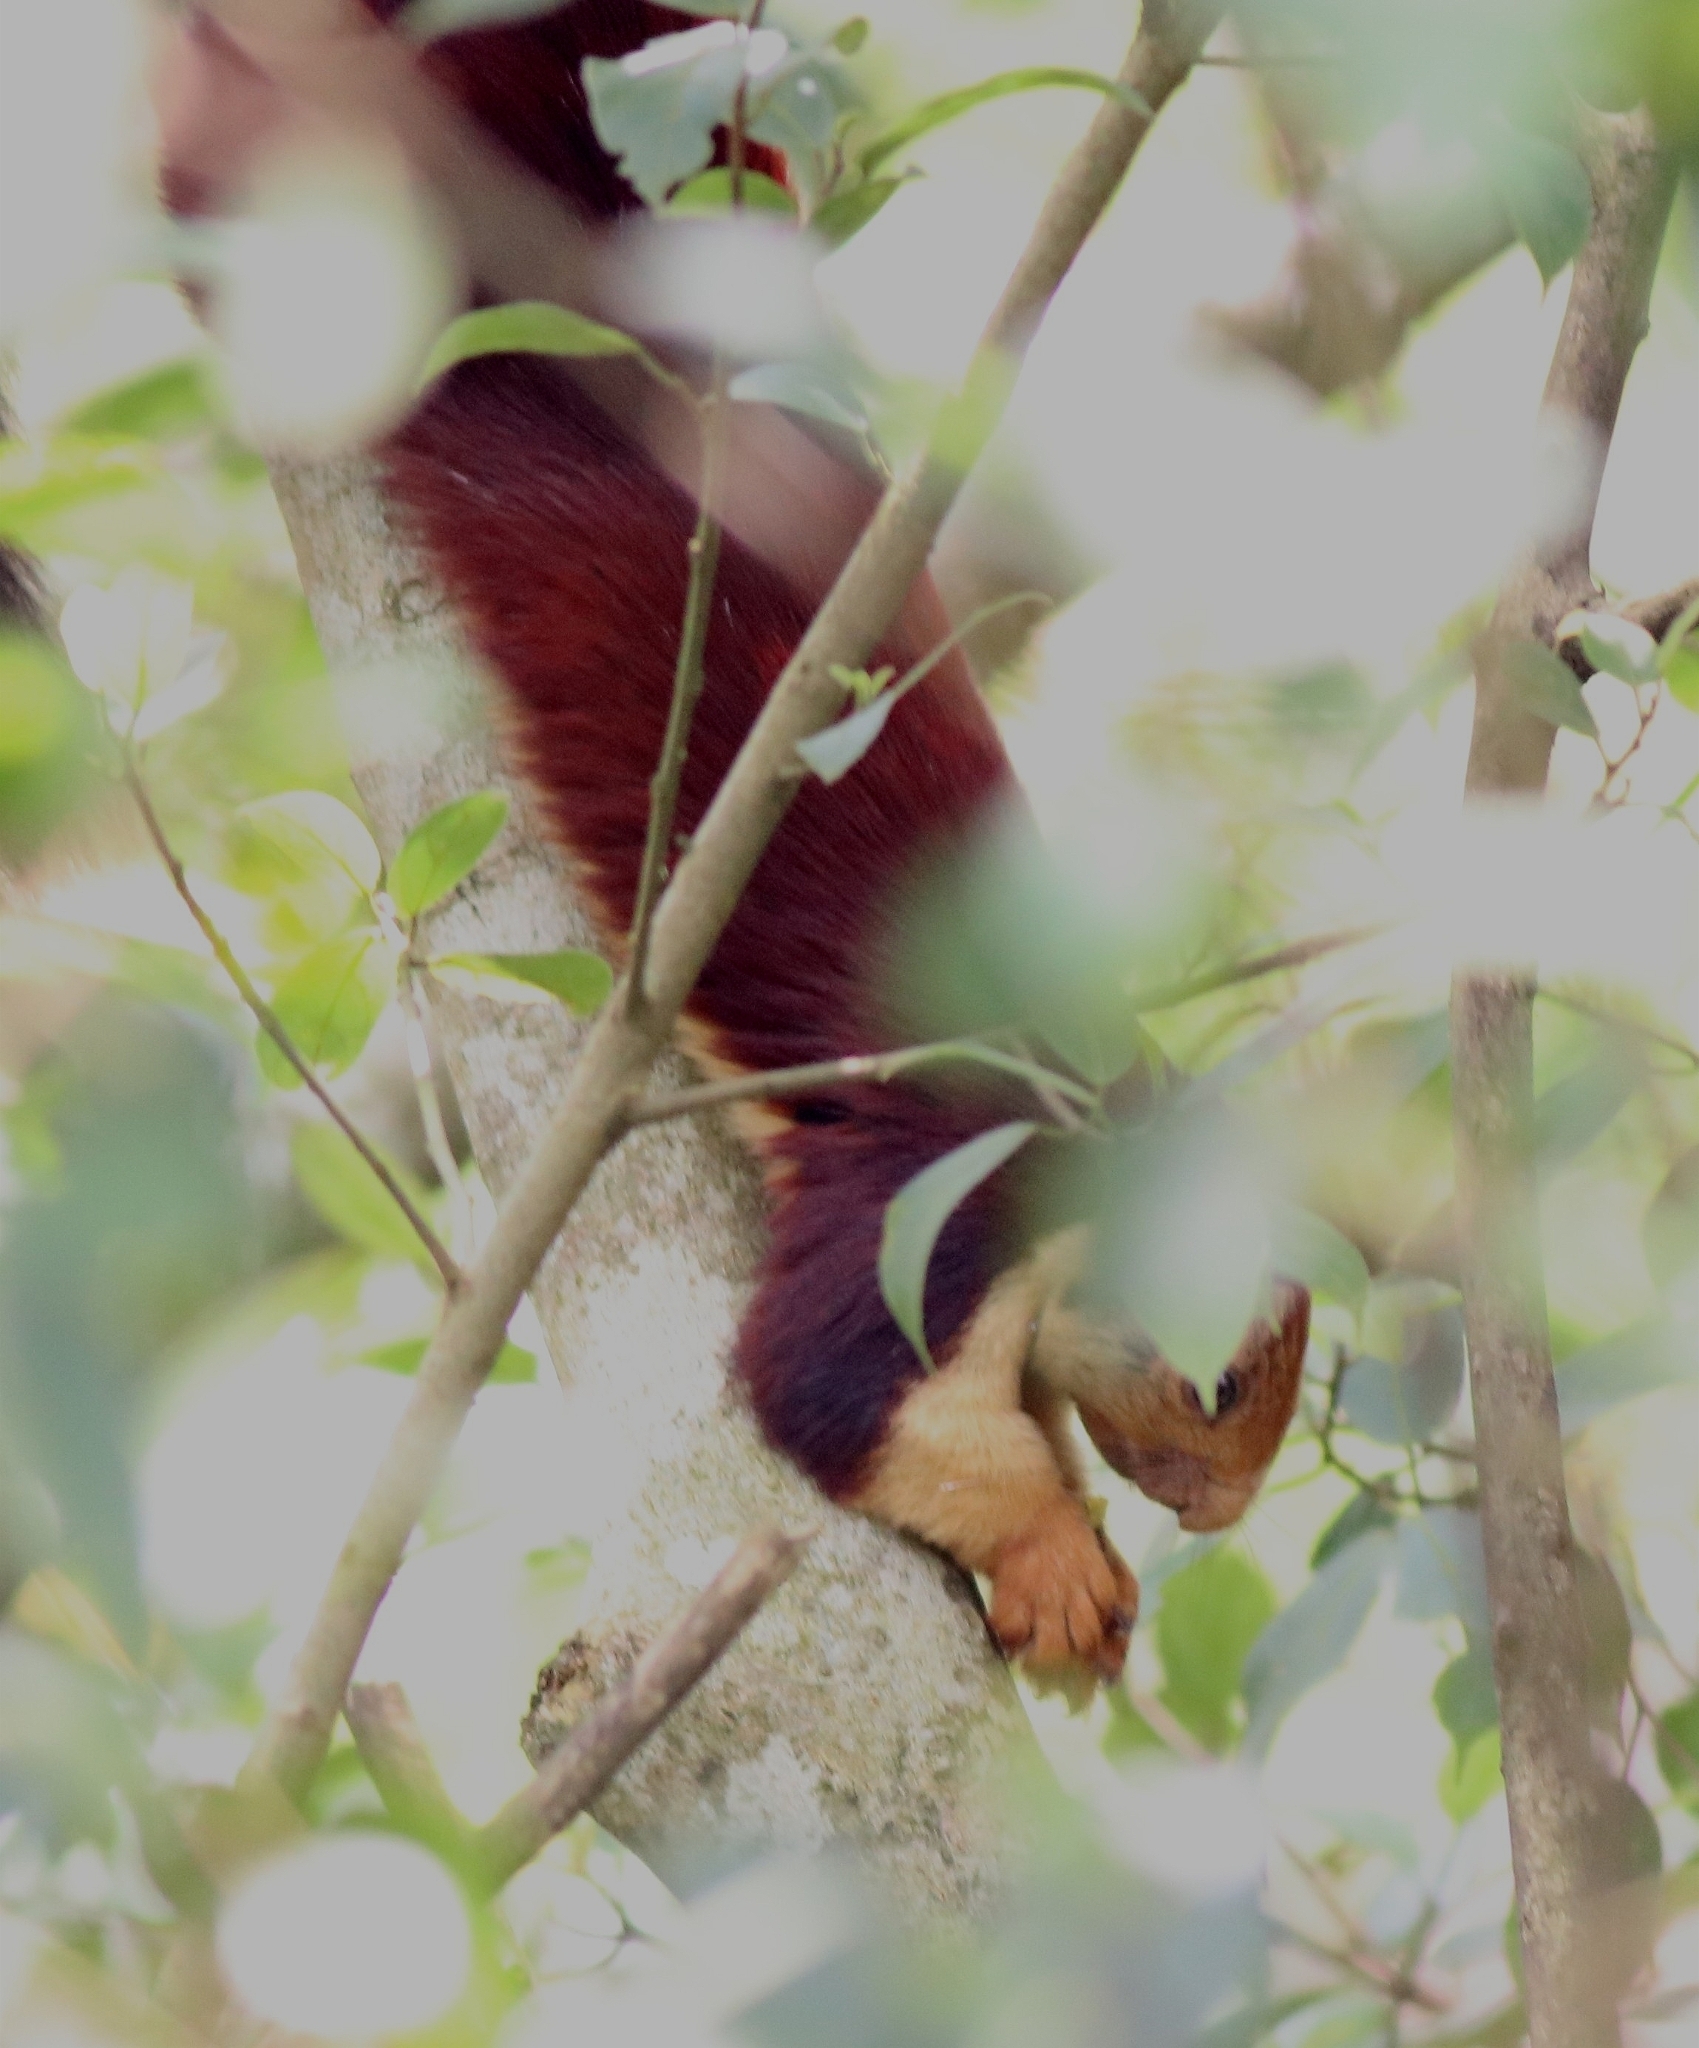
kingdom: Animalia
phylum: Chordata
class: Mammalia
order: Rodentia
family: Sciuridae
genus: Ratufa
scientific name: Ratufa indica
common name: Indian giant squirrel
